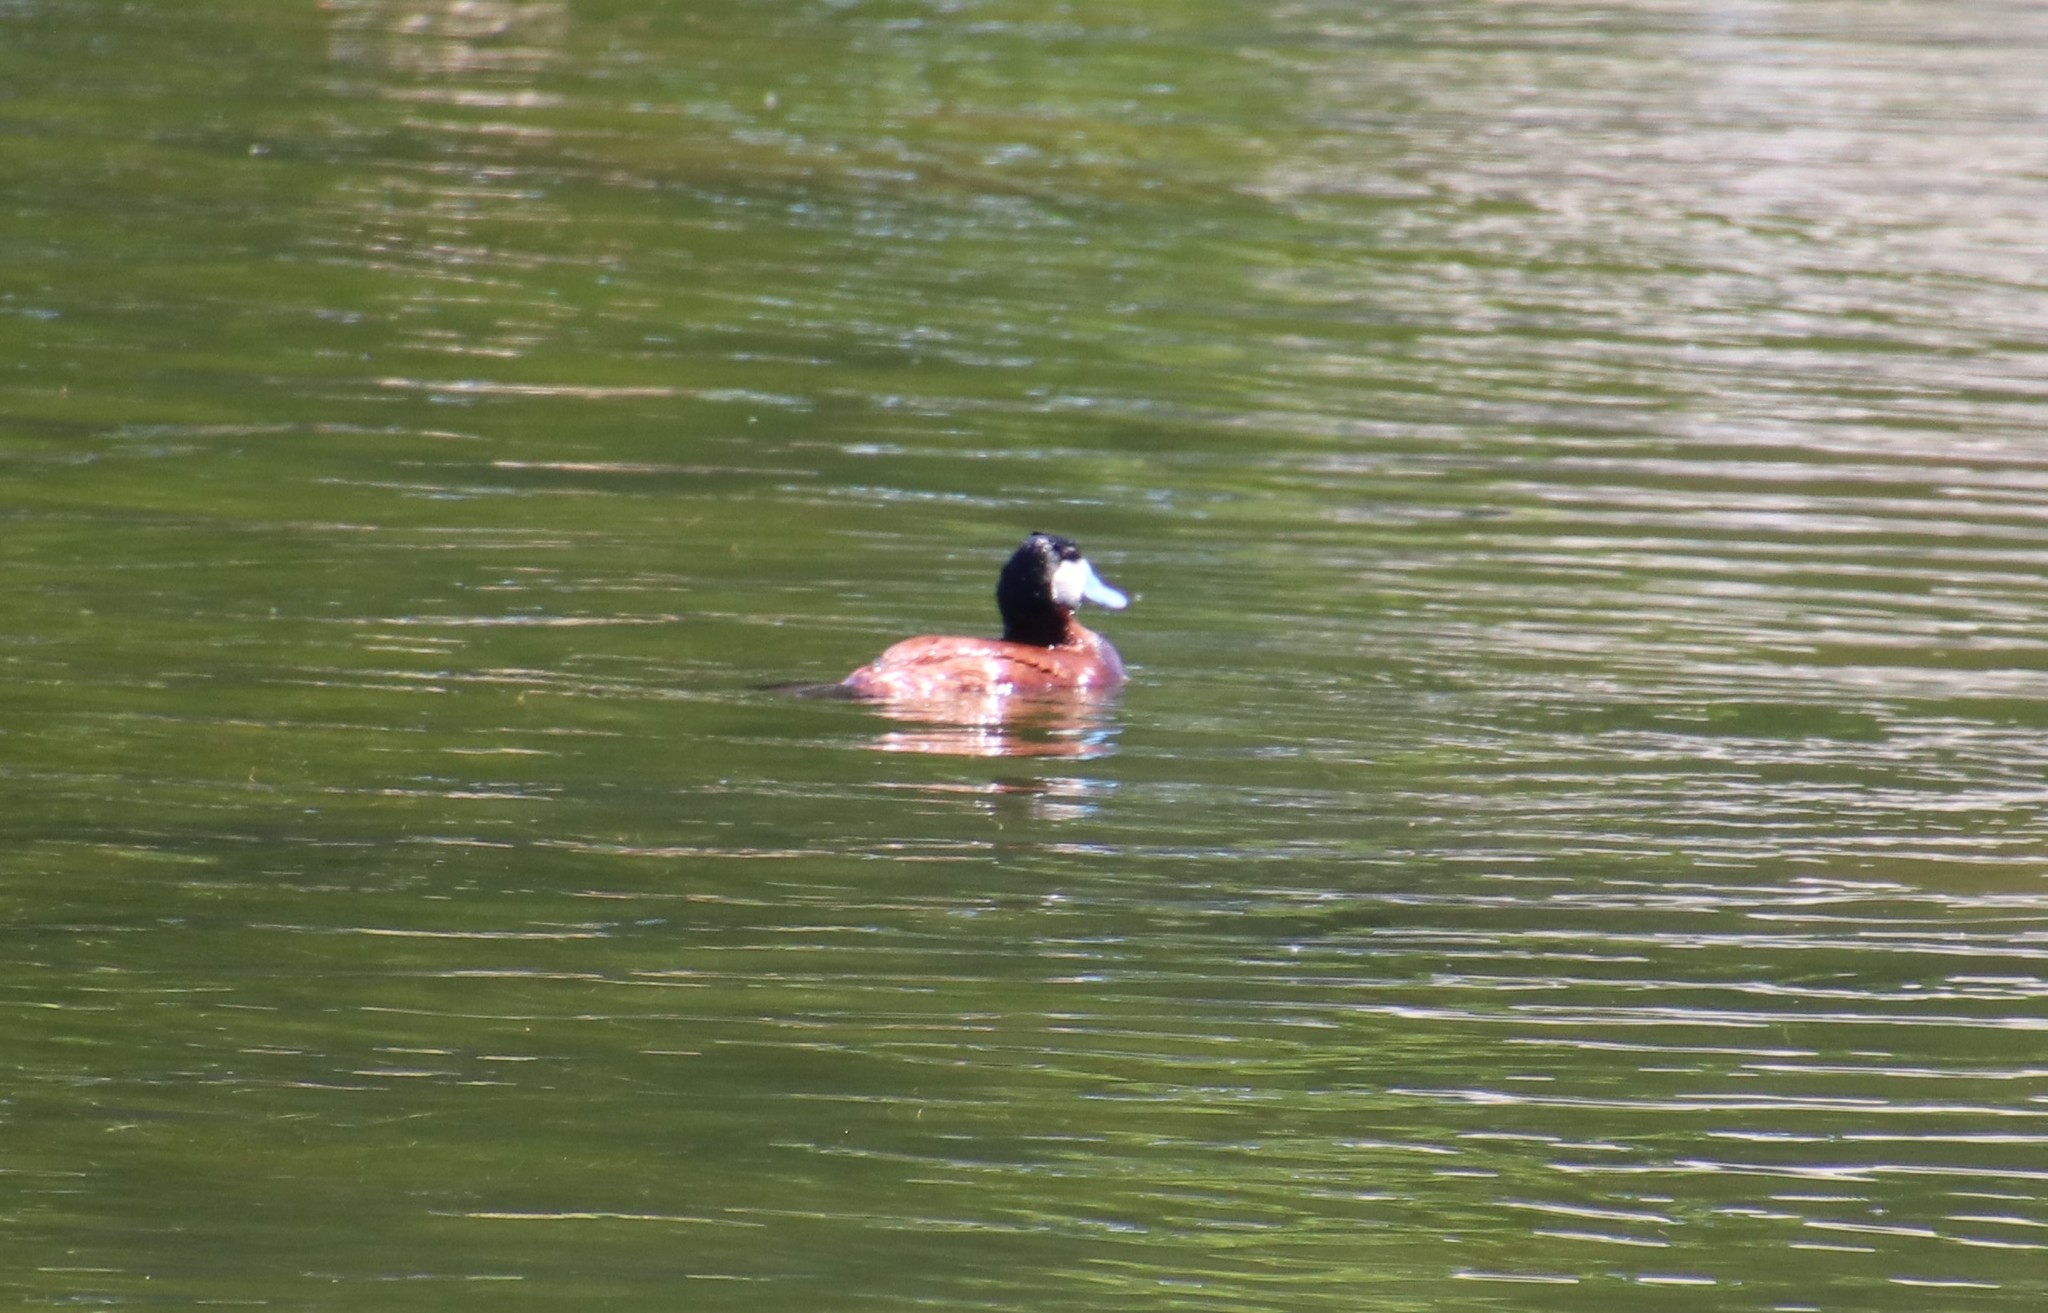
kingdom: Animalia
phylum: Chordata
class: Aves
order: Anseriformes
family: Anatidae
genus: Oxyura
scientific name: Oxyura jamaicensis
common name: Ruddy duck
